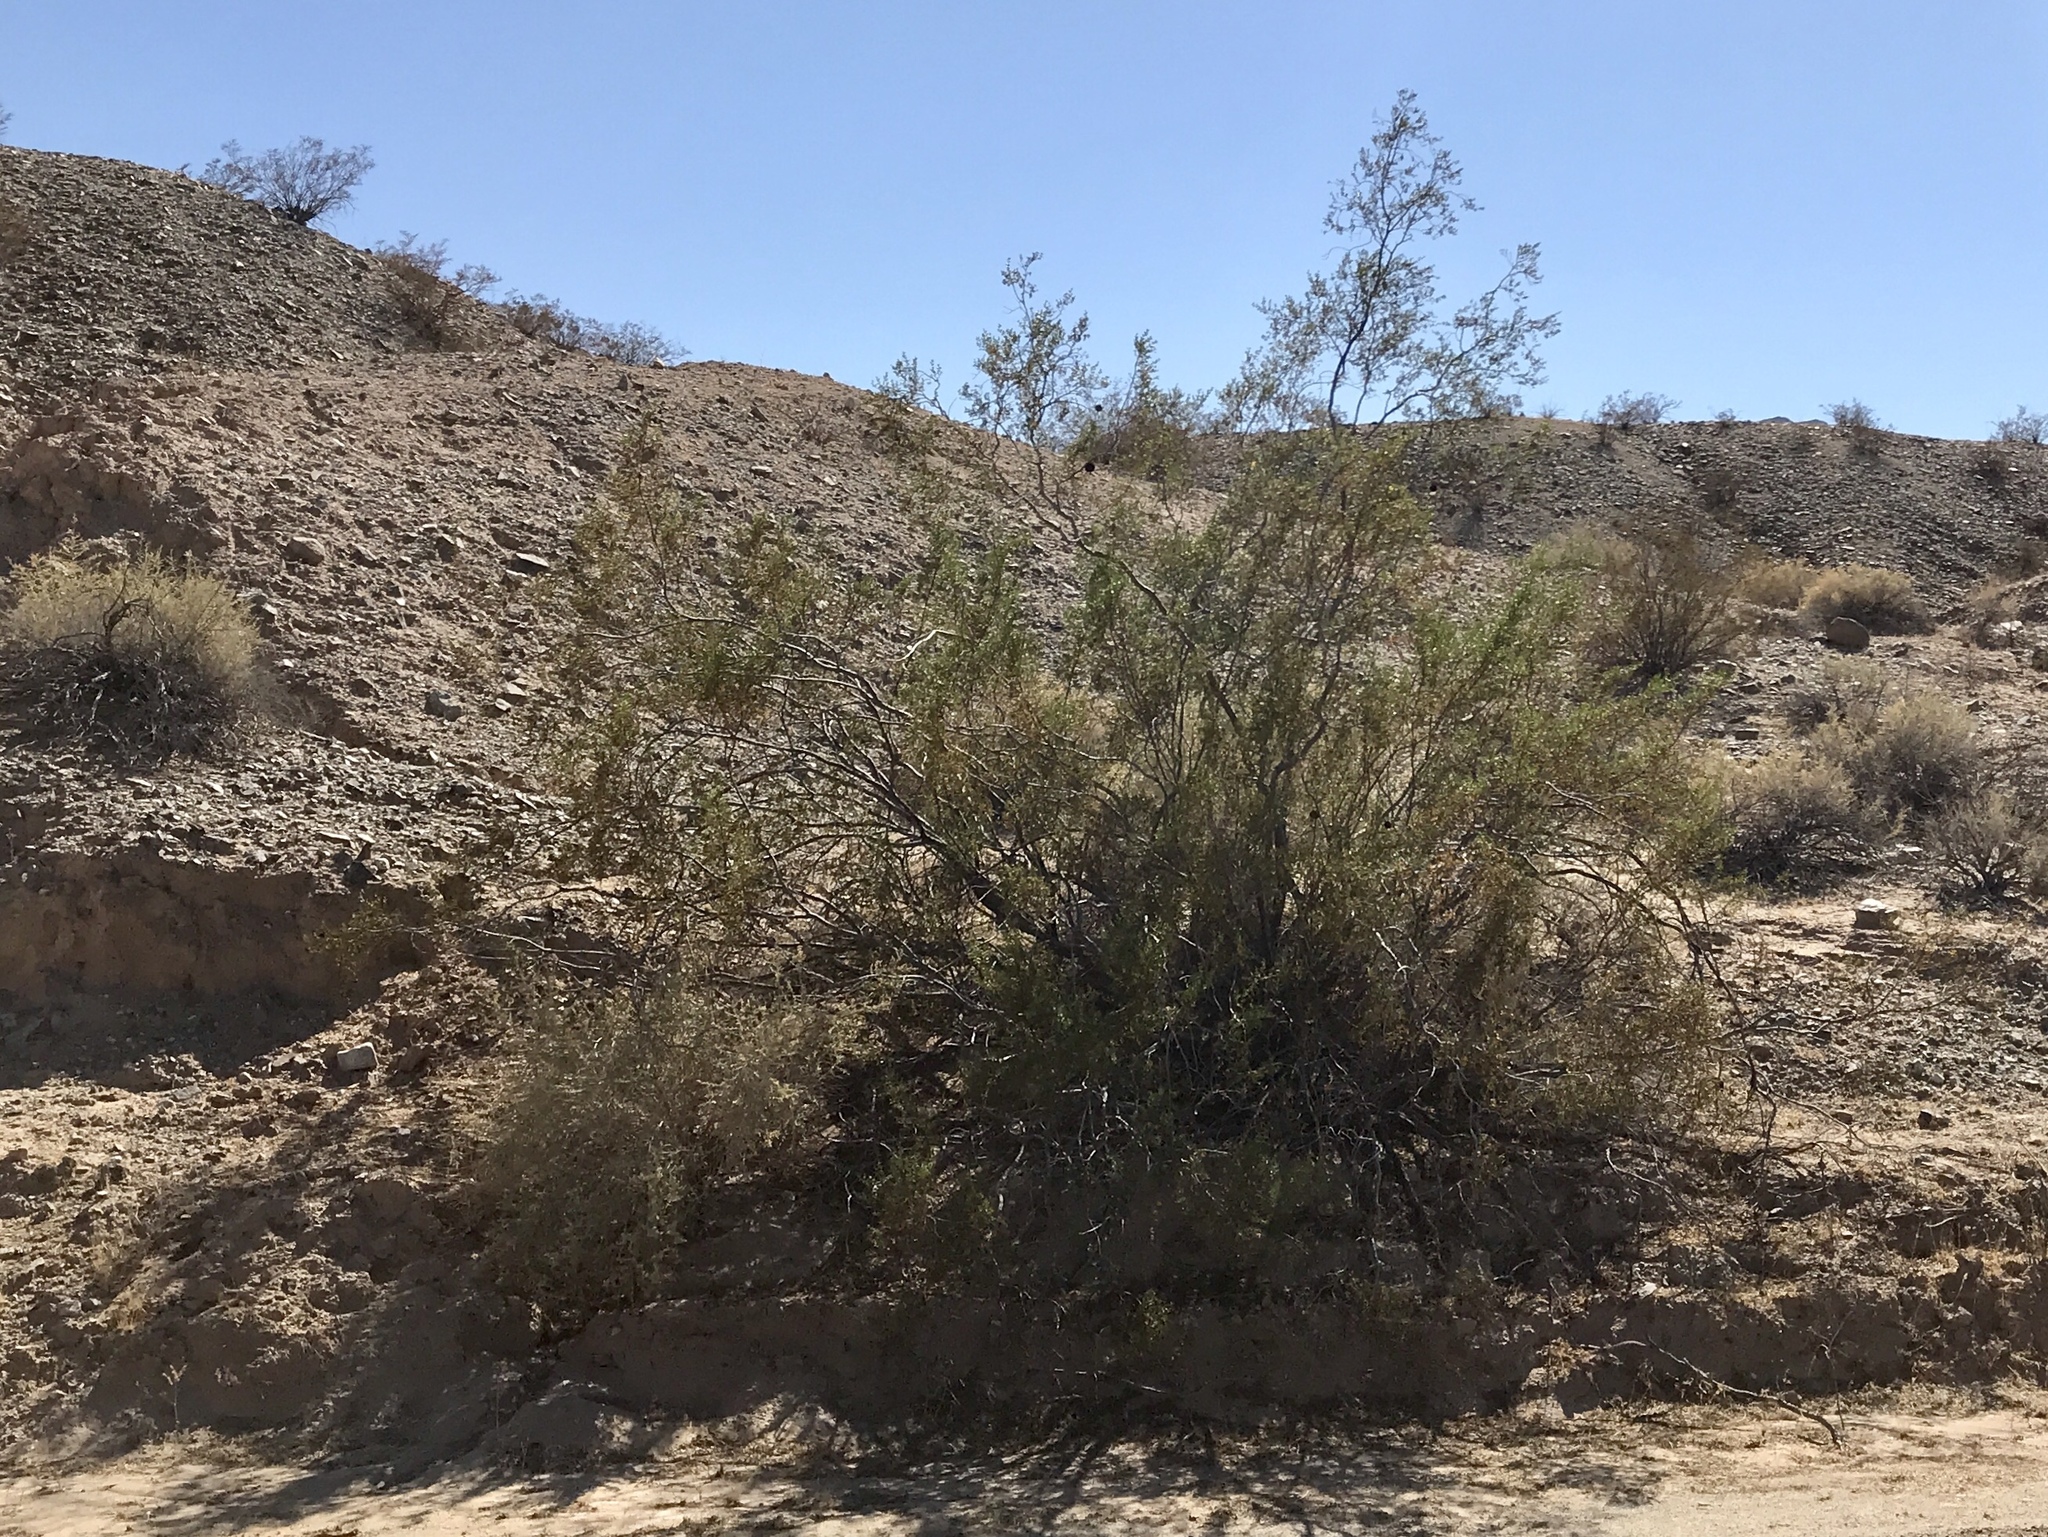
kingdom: Plantae
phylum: Tracheophyta
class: Magnoliopsida
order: Zygophyllales
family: Zygophyllaceae
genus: Larrea
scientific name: Larrea tridentata
